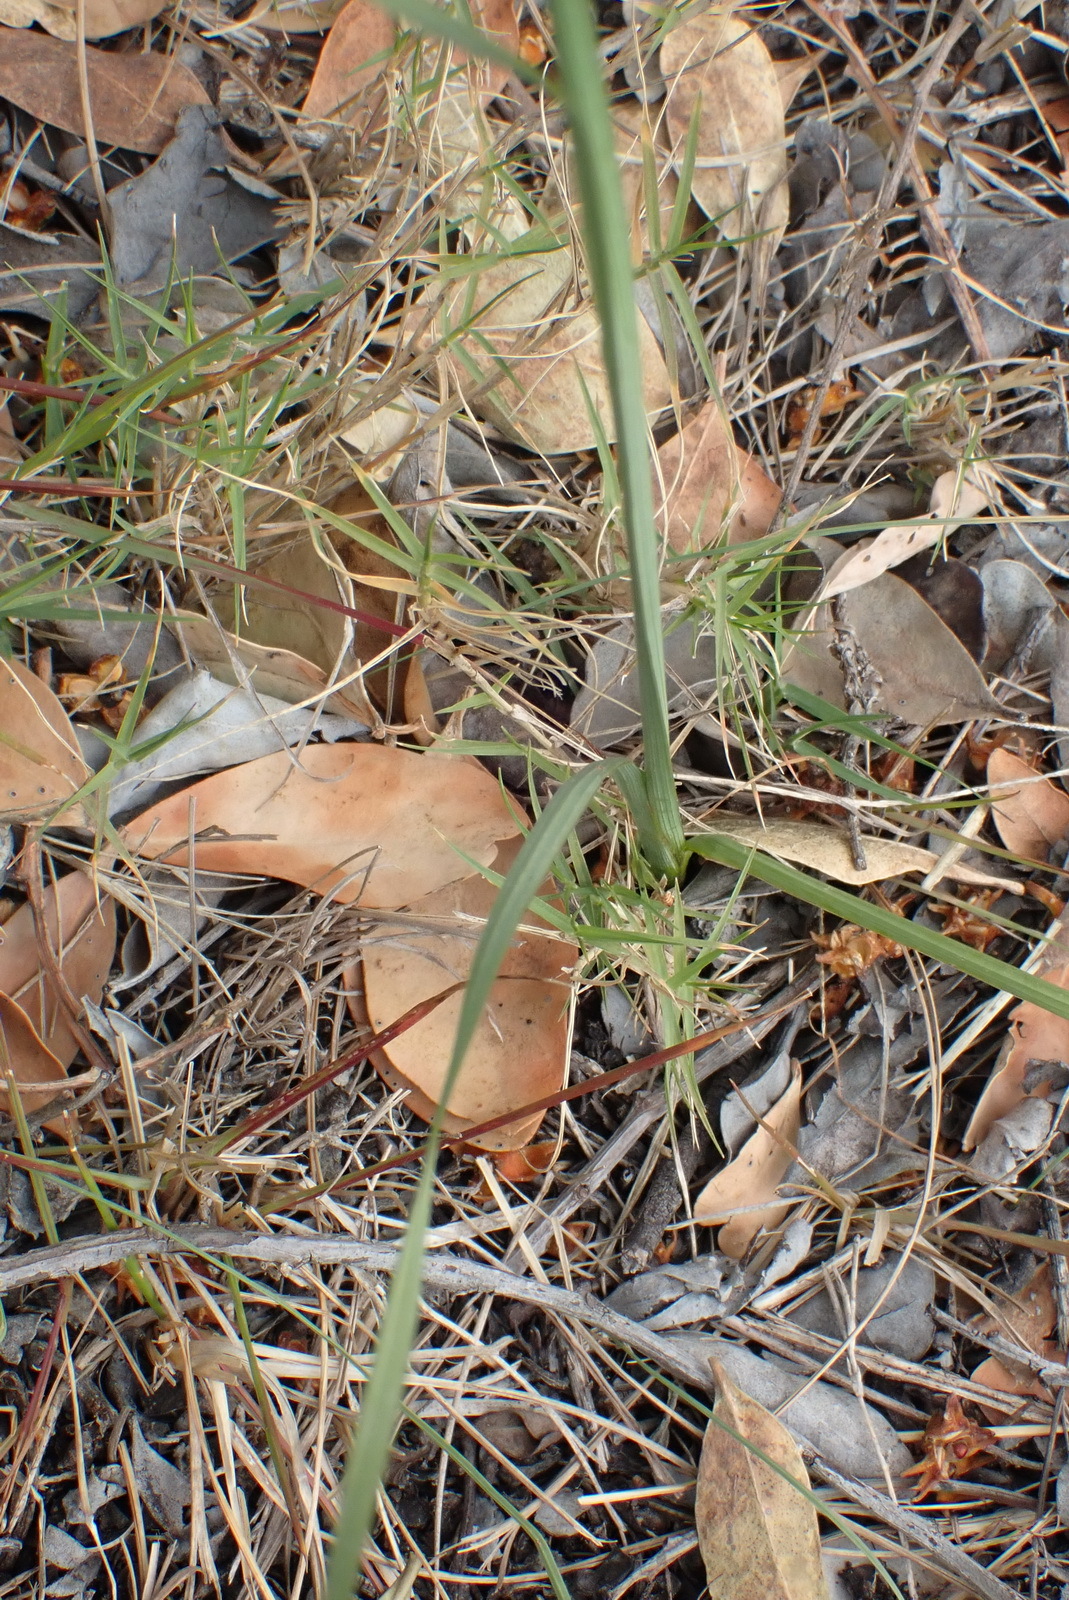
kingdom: Plantae
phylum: Tracheophyta
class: Liliopsida
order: Asparagales
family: Iridaceae
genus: Ixia
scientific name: Ixia orientalis
